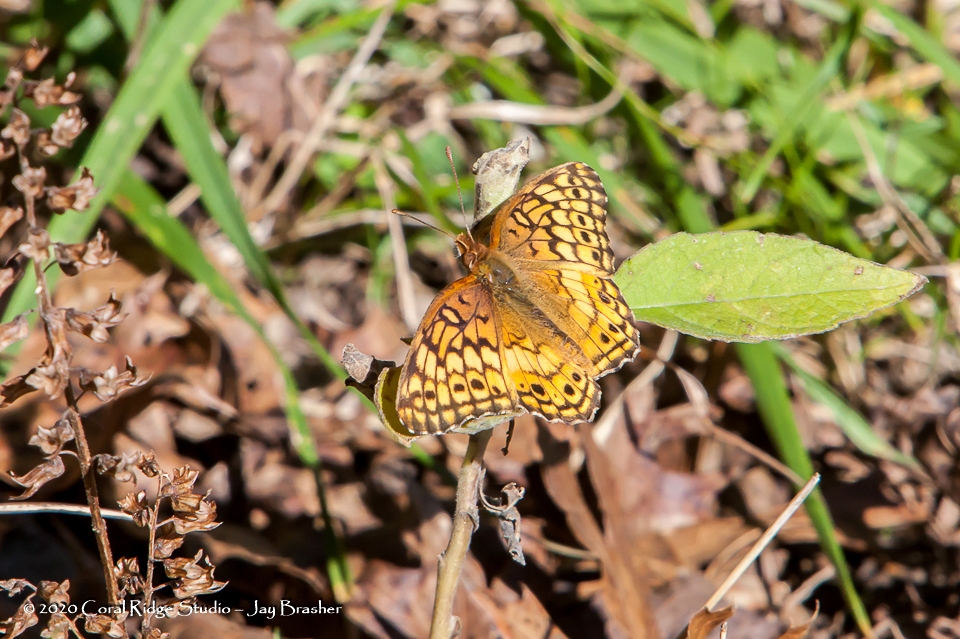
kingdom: Animalia
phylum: Arthropoda
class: Insecta
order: Lepidoptera
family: Nymphalidae
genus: Euptoieta
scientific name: Euptoieta claudia
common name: Variegated fritillary
